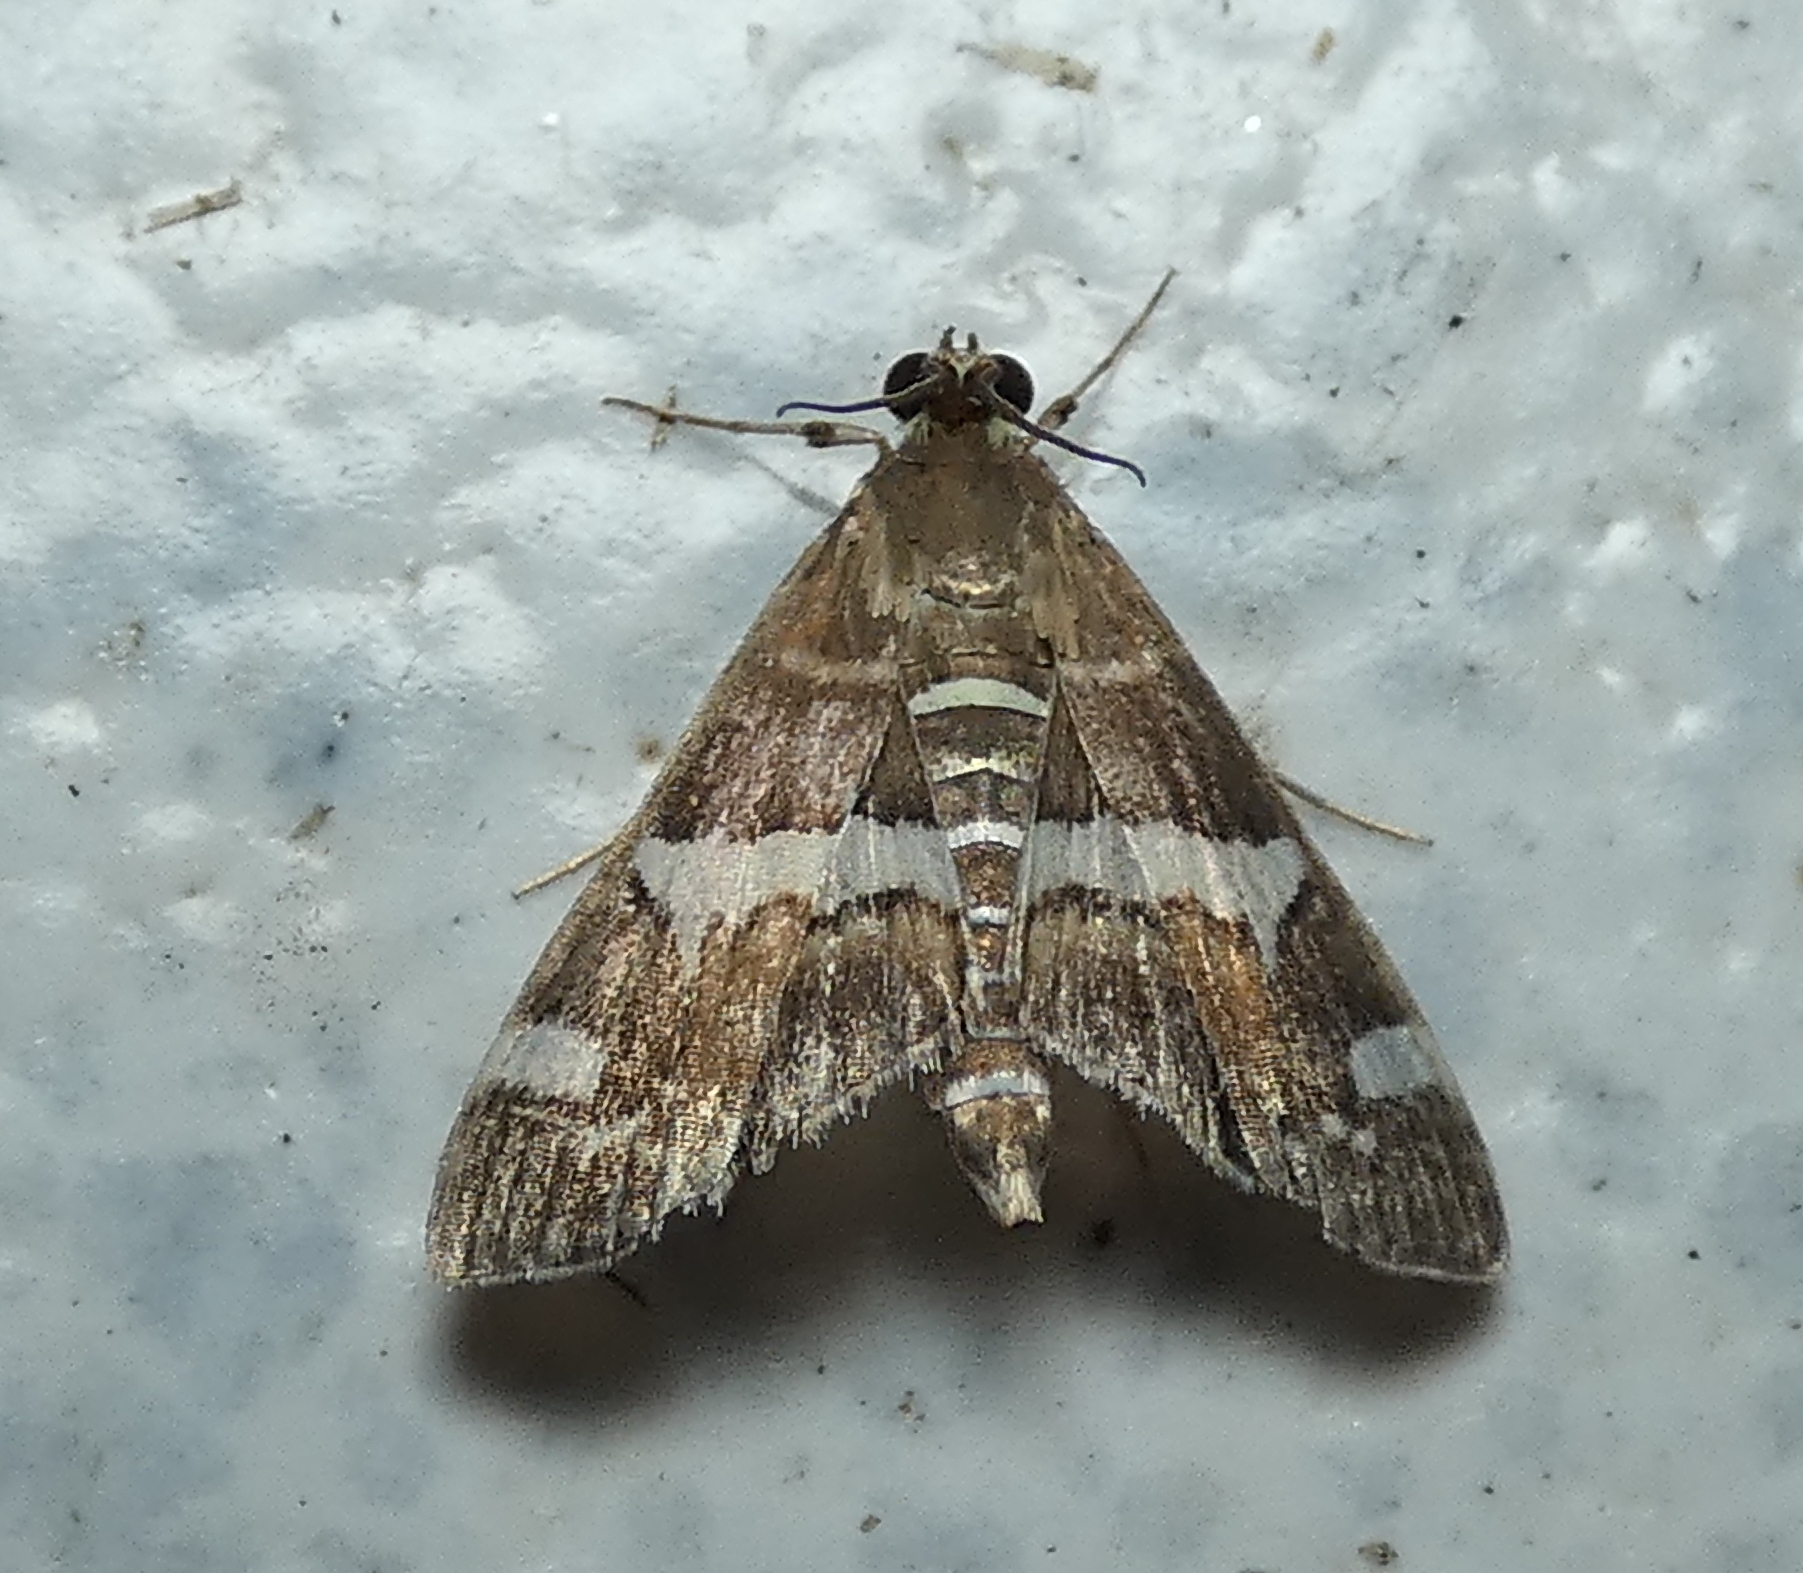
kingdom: Animalia
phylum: Arthropoda
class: Insecta
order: Lepidoptera
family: Crambidae
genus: Spoladea
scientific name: Spoladea recurvalis
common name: Beet webworm moth
